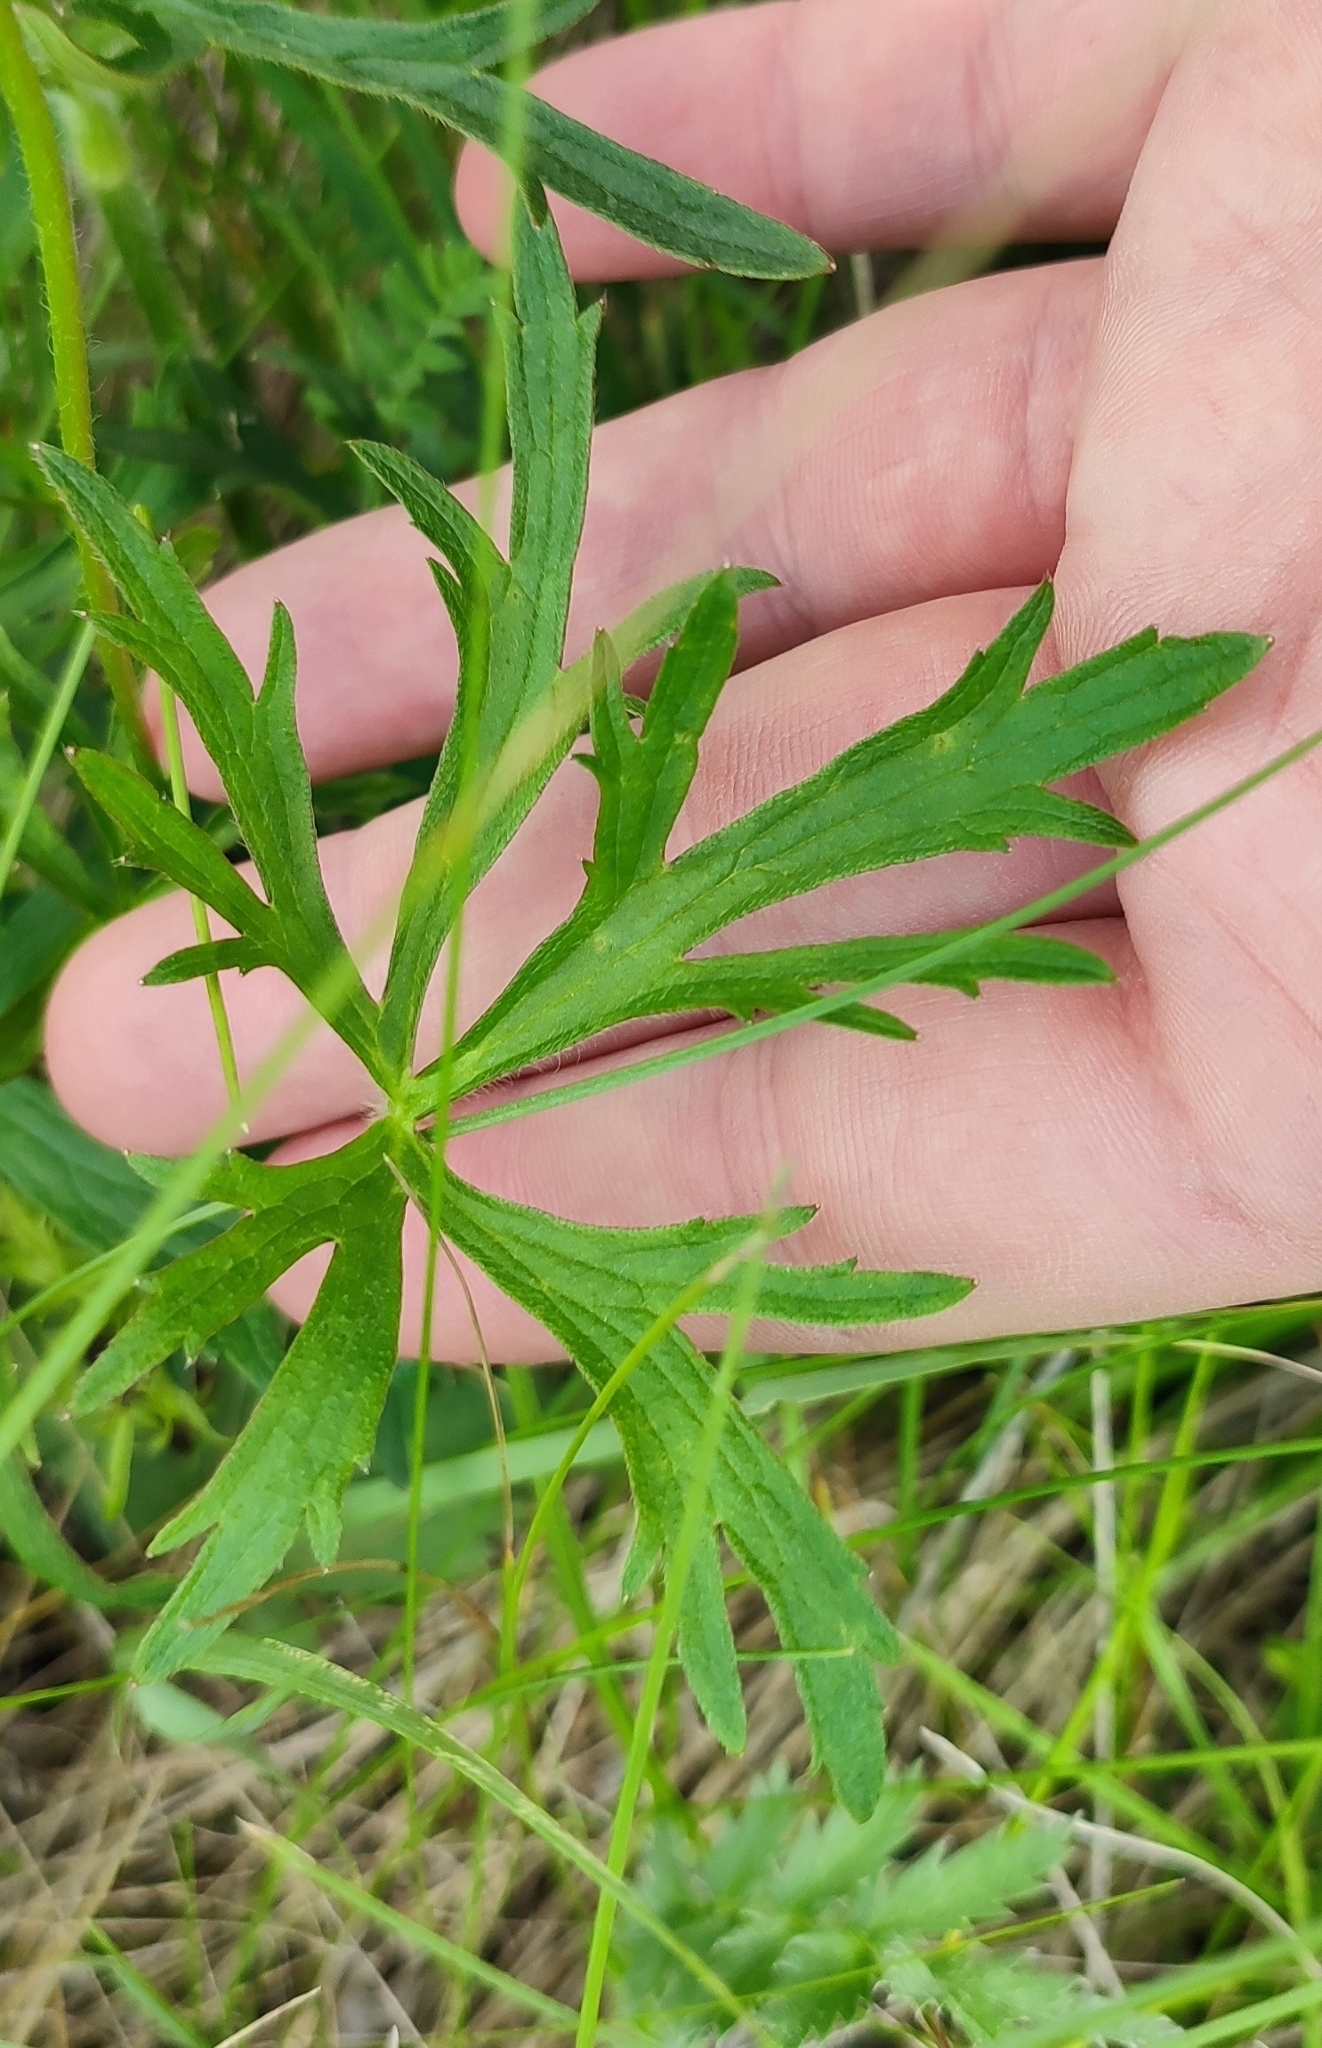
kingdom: Plantae
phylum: Tracheophyta
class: Magnoliopsida
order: Ranunculales
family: Ranunculaceae
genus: Ranunculus
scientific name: Ranunculus polyanthemos
